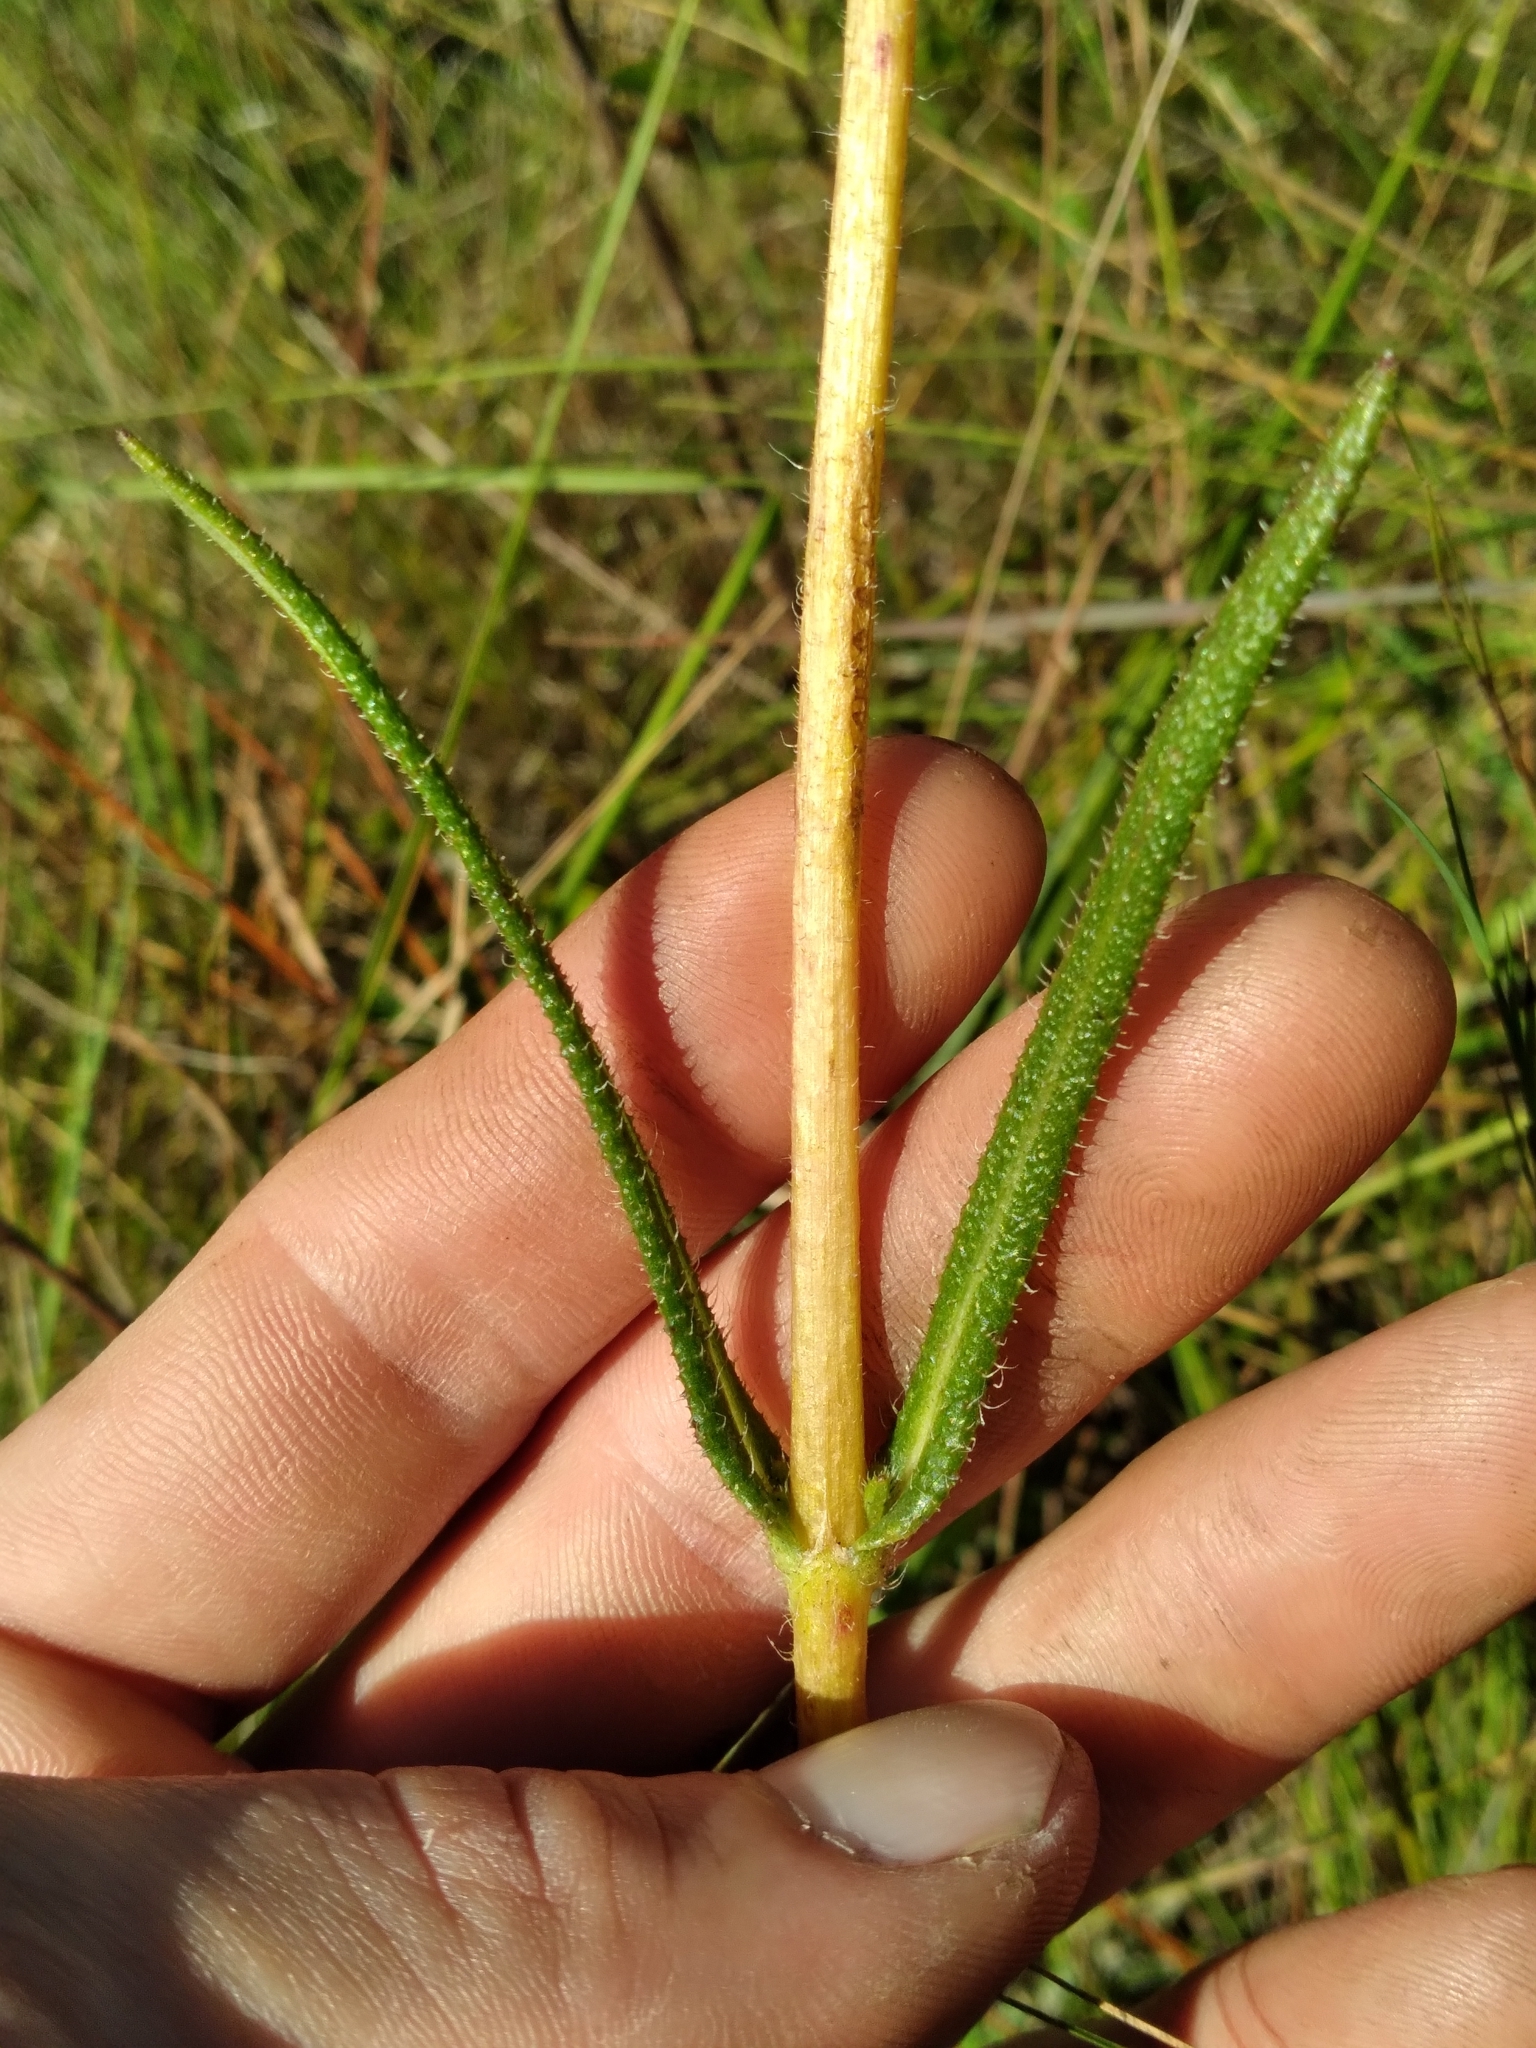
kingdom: Plantae
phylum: Tracheophyta
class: Magnoliopsida
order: Asterales
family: Asteraceae
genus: Helianthus
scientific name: Helianthus heterophyllus
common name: Wetland sunflower
